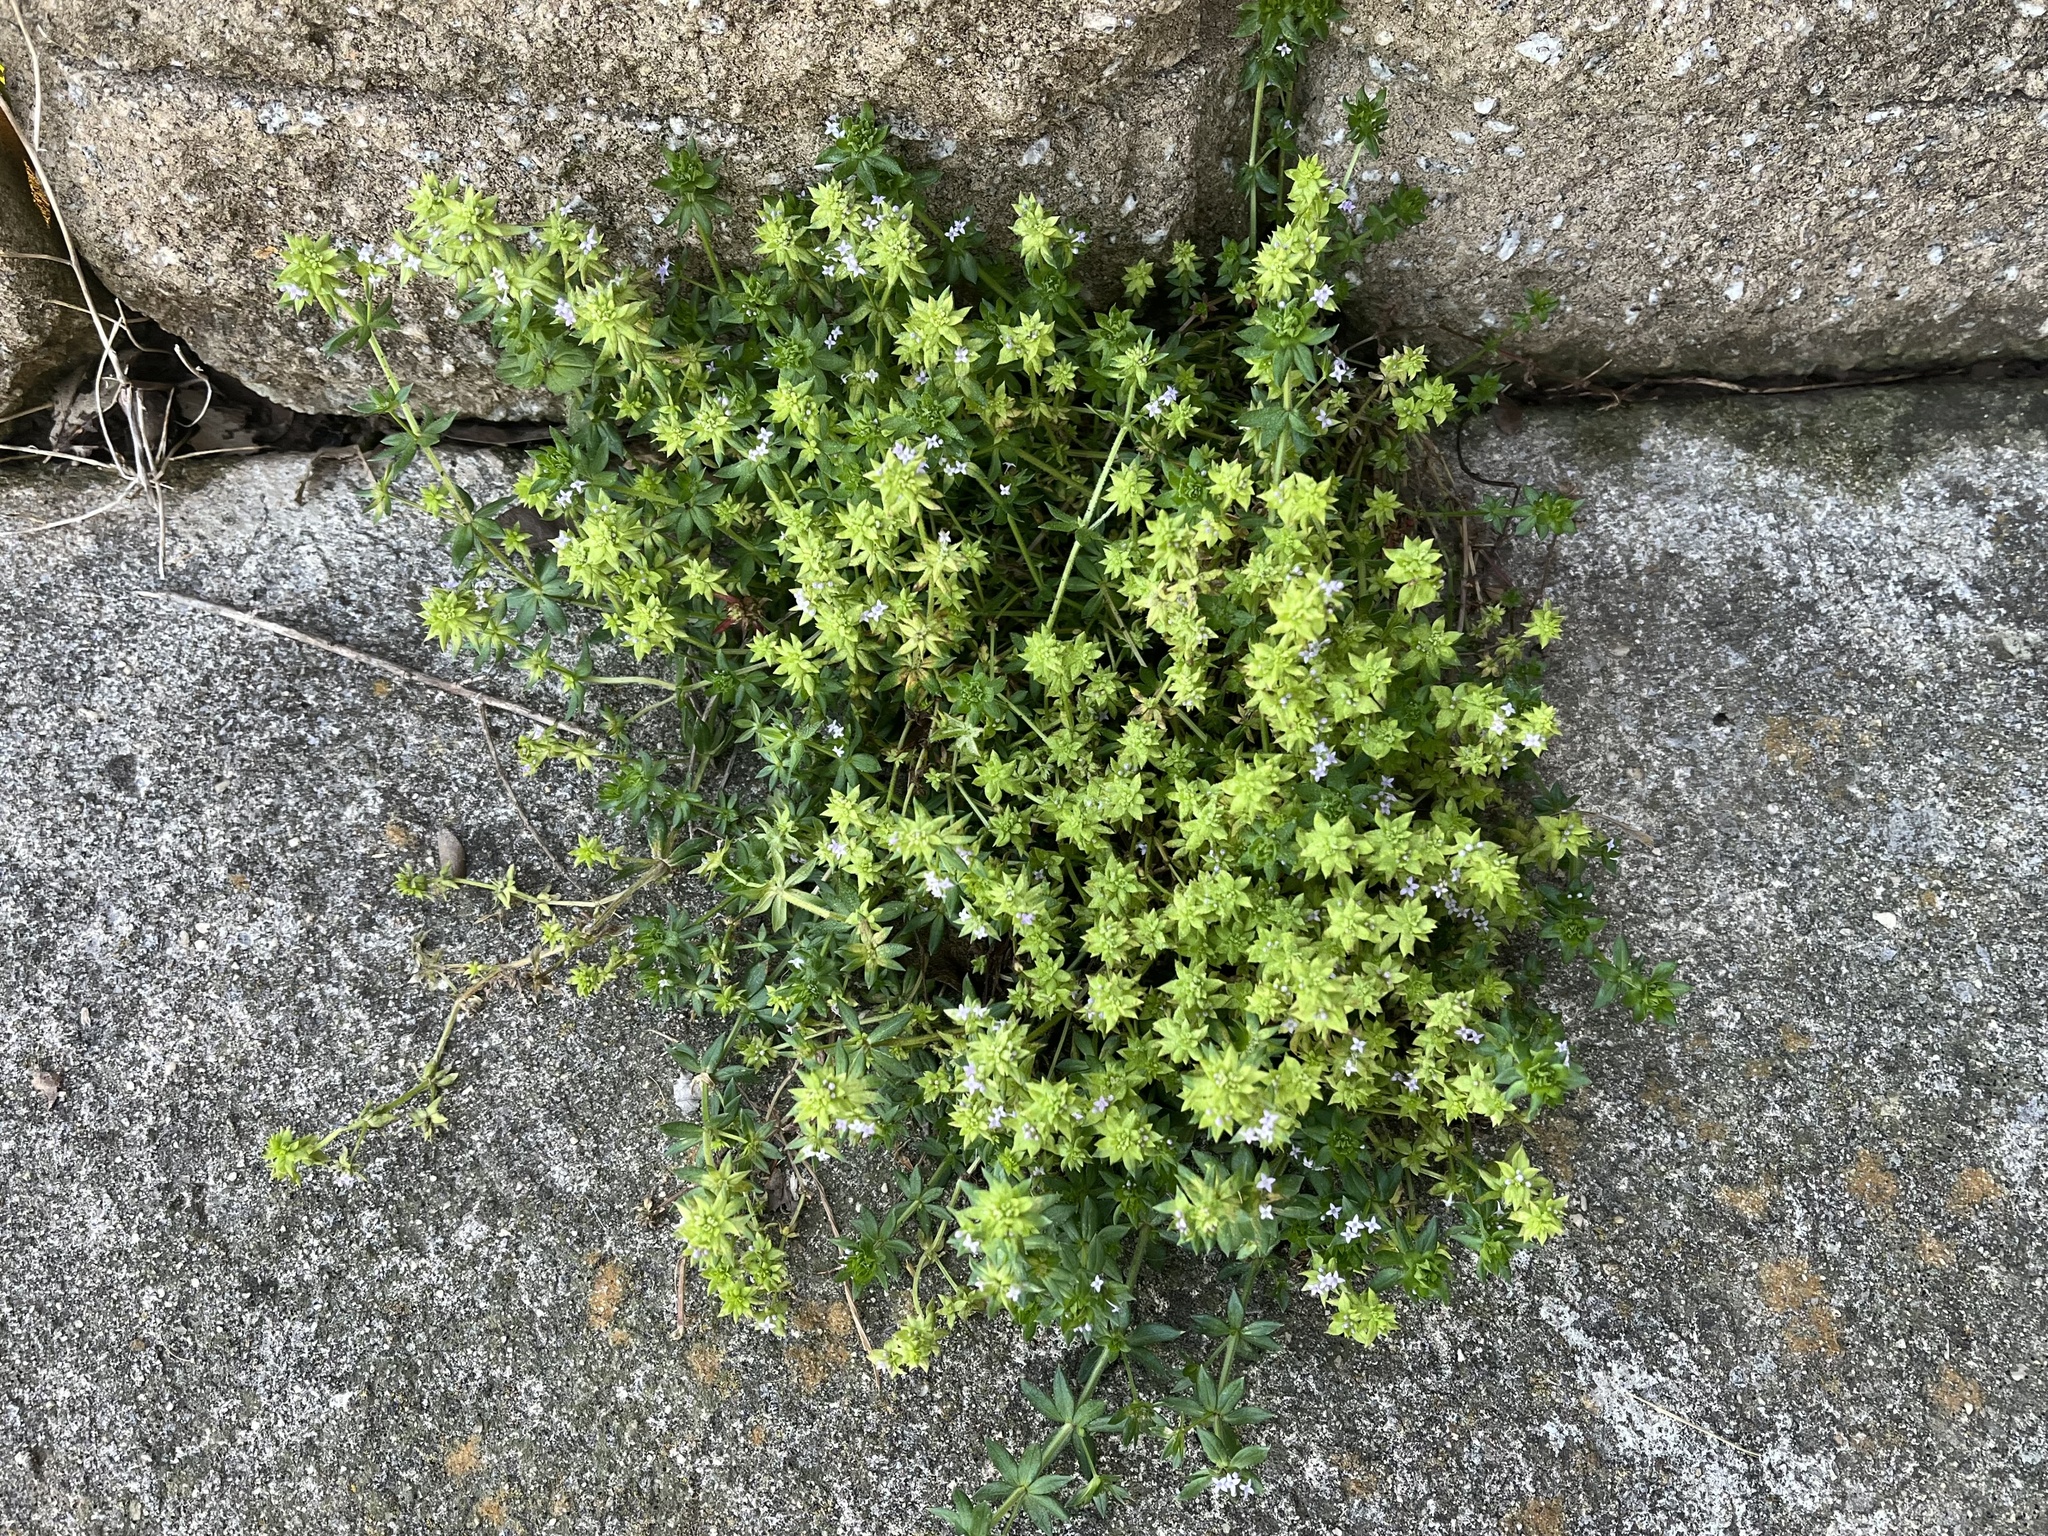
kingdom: Plantae
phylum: Tracheophyta
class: Magnoliopsida
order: Gentianales
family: Rubiaceae
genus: Sherardia
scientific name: Sherardia arvensis
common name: Field madder
